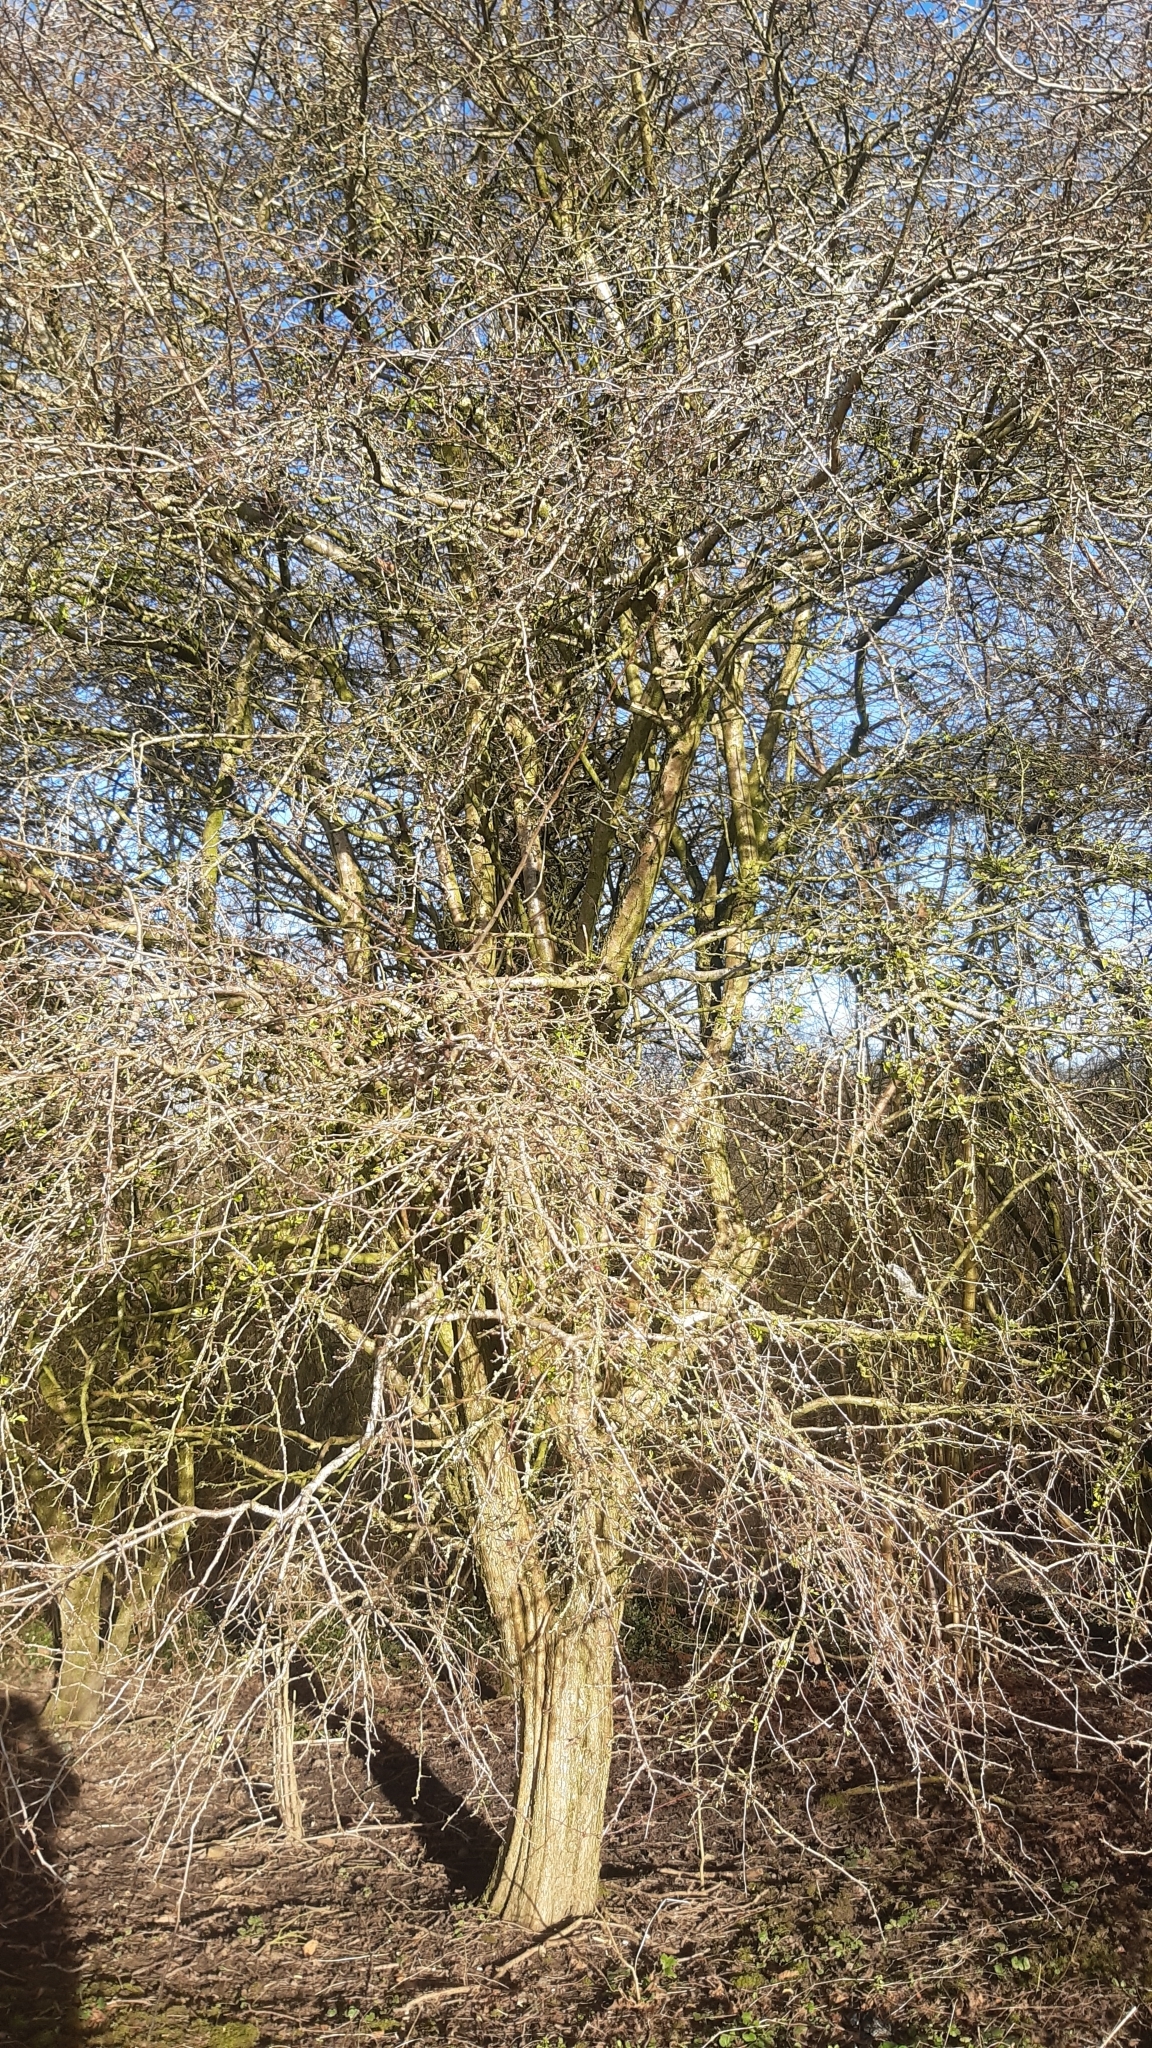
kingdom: Plantae
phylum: Tracheophyta
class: Magnoliopsida
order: Rosales
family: Rosaceae
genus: Crataegus
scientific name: Crataegus monogyna
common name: Hawthorn
